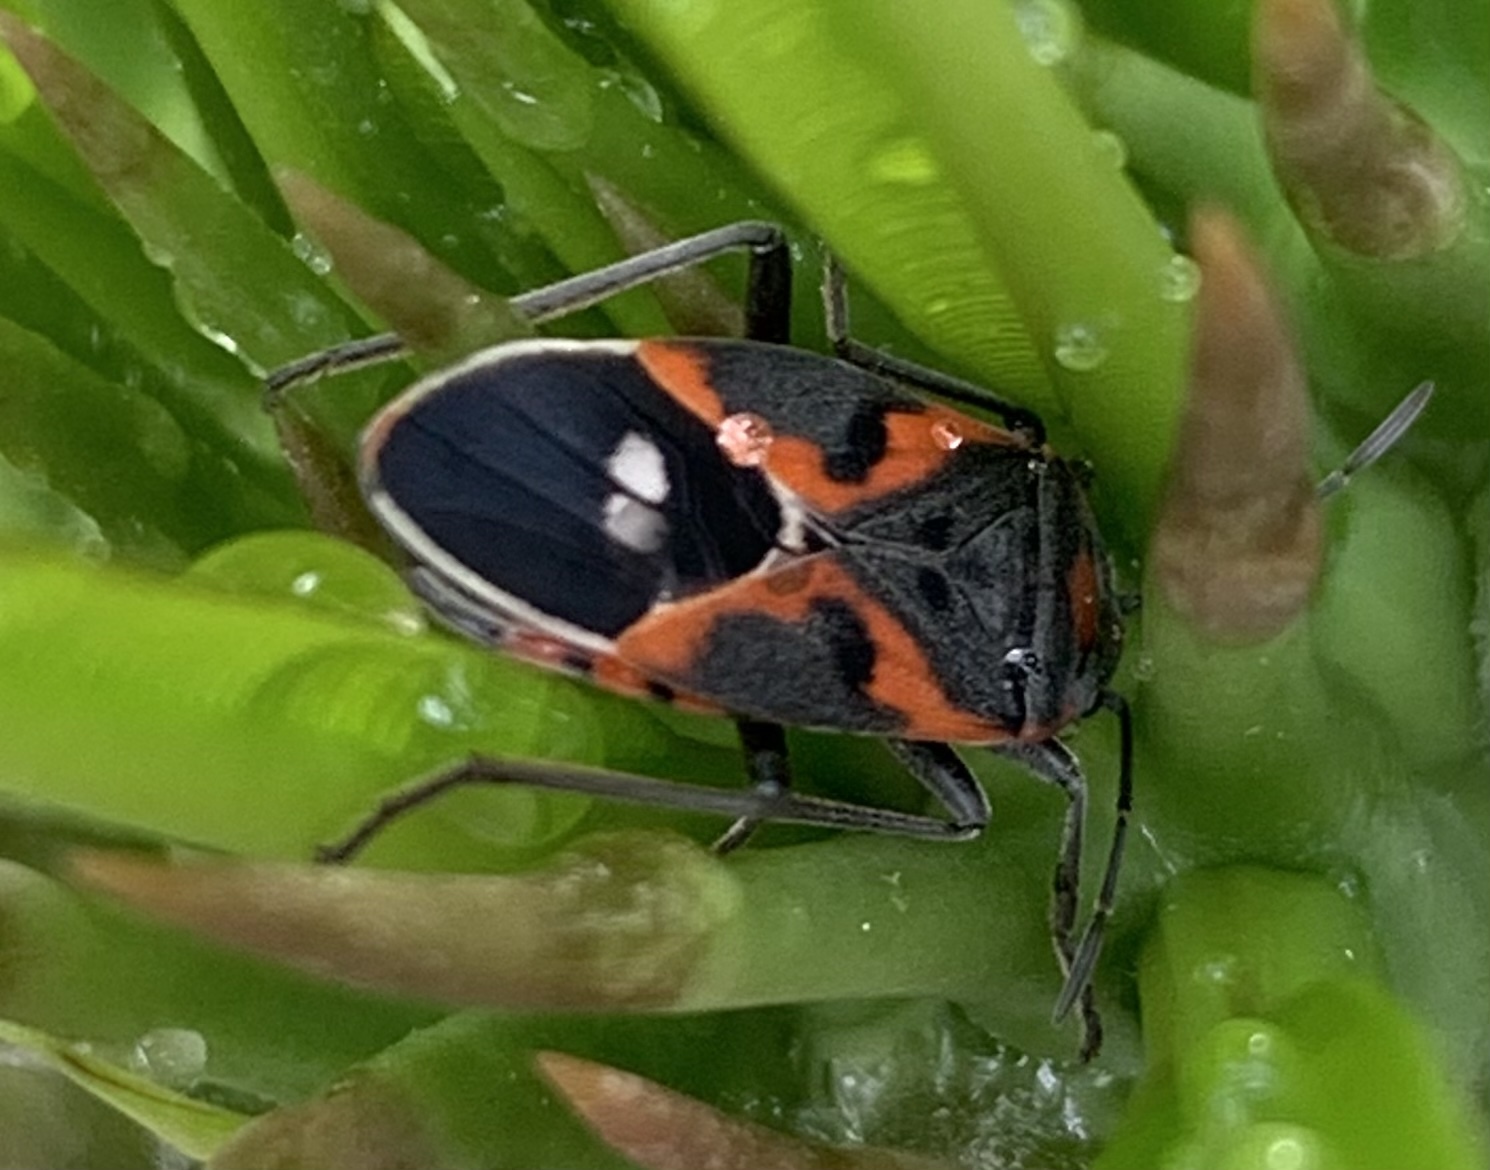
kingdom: Animalia
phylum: Arthropoda
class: Insecta
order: Hemiptera
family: Lygaeidae
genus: Lygaeus
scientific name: Lygaeus kalmii
